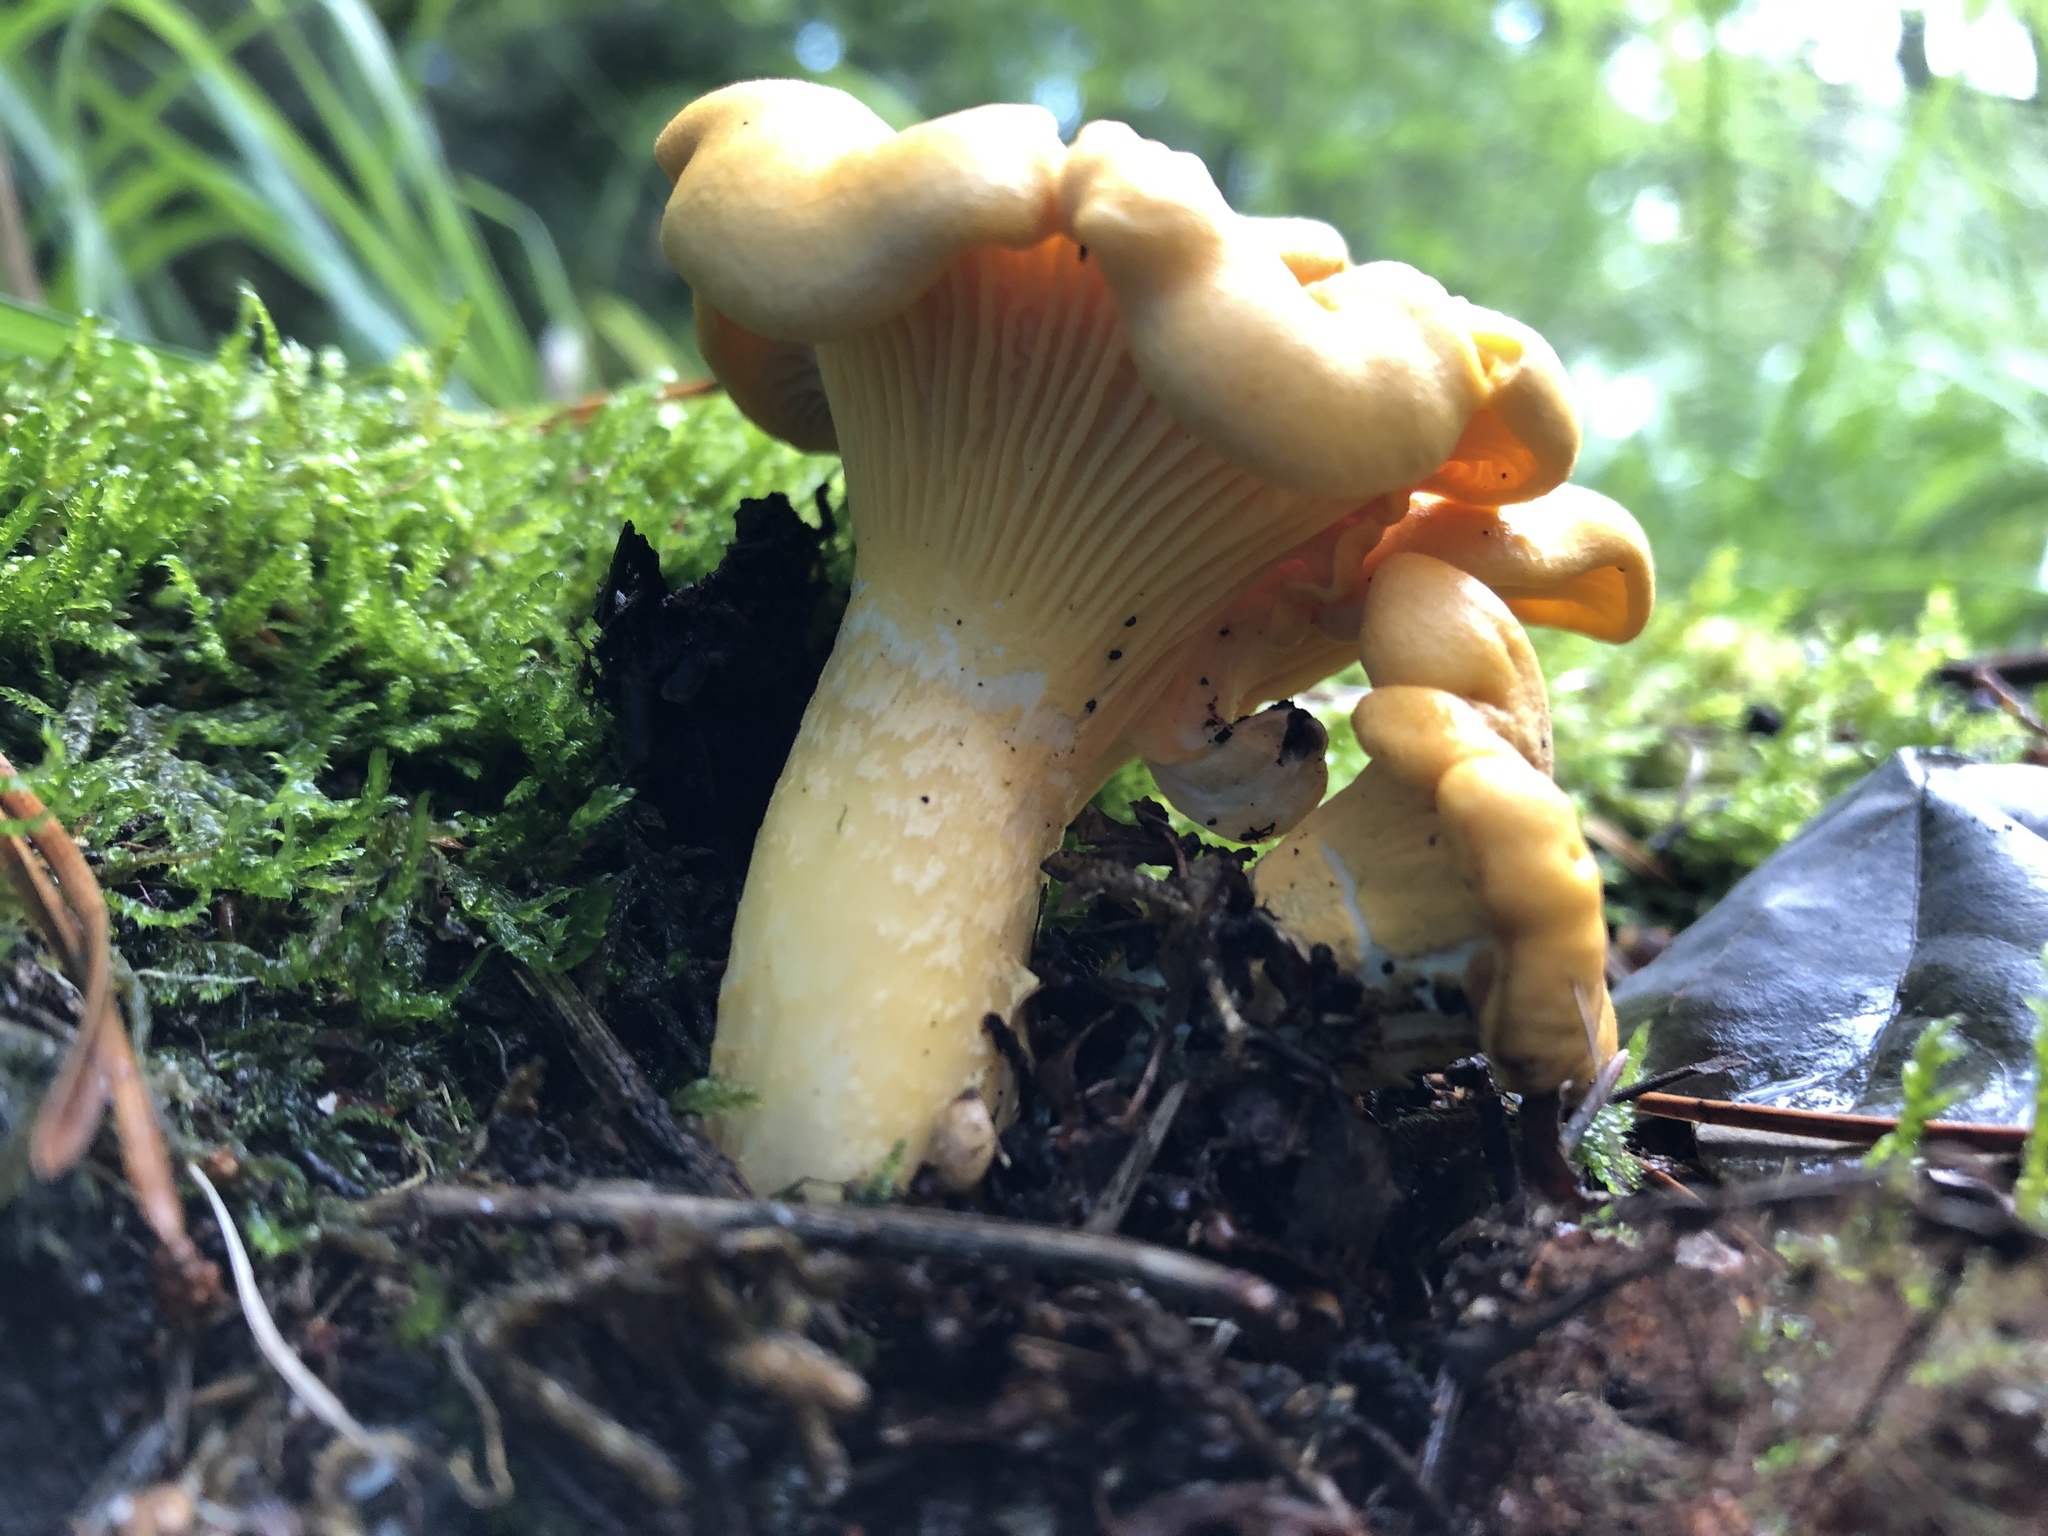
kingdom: Fungi
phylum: Basidiomycota
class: Agaricomycetes
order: Cantharellales
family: Hydnaceae
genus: Cantharellus
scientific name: Cantharellus cibarius
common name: Chanterelle
